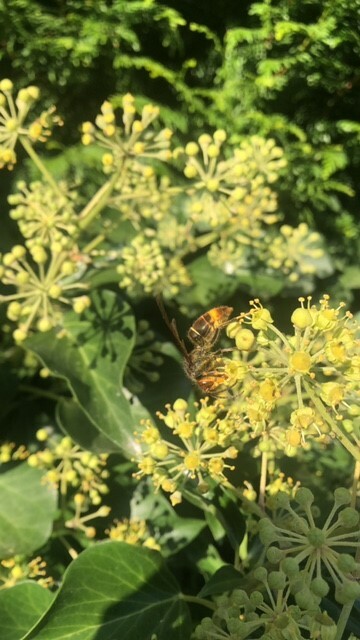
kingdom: Animalia
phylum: Arthropoda
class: Insecta
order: Hymenoptera
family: Vespidae
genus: Vespa
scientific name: Vespa velutina
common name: Asian hornet
